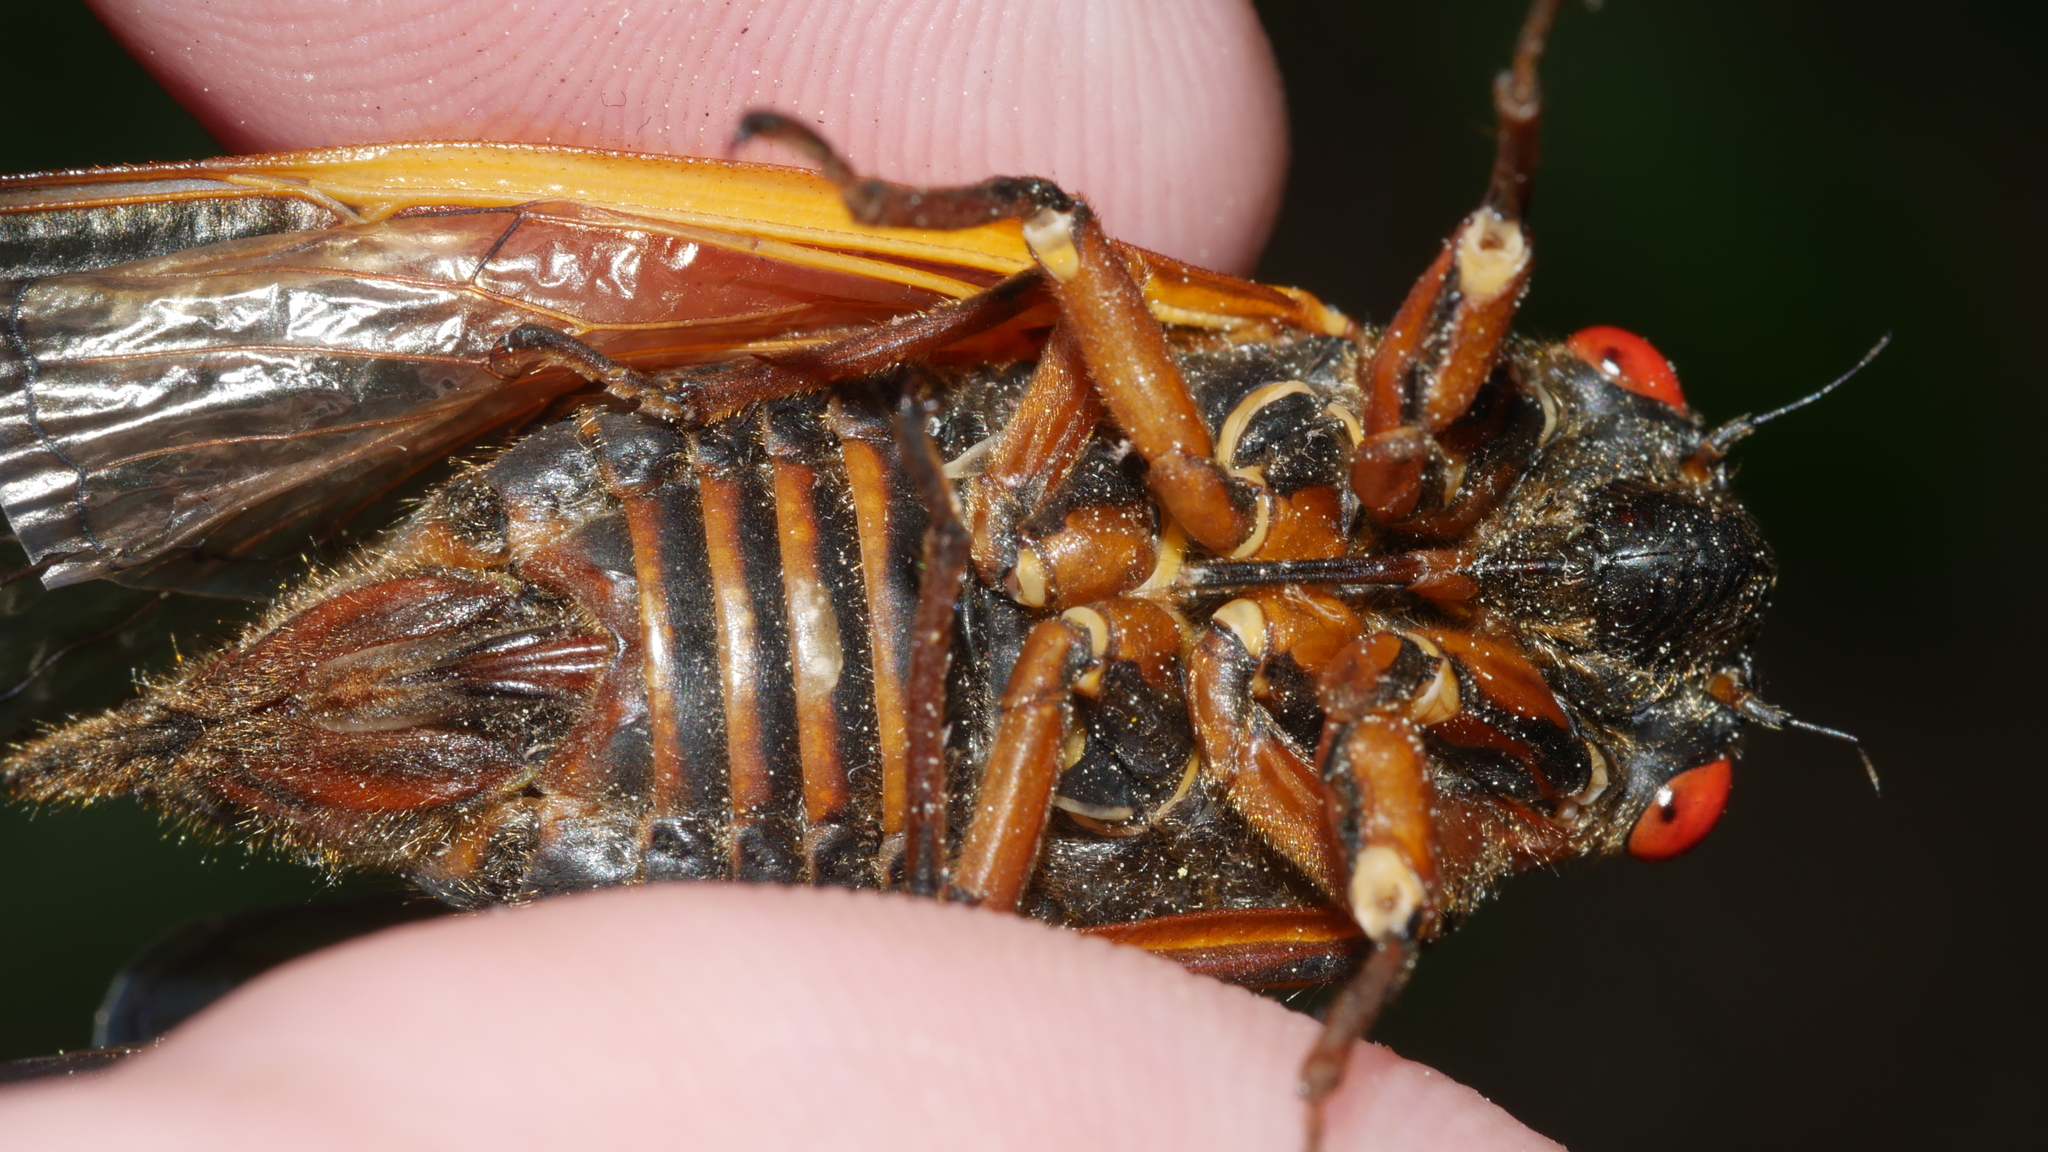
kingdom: Animalia
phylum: Arthropoda
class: Insecta
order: Hemiptera
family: Cicadidae
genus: Magicicada
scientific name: Magicicada septendecim
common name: Periodical cicada
